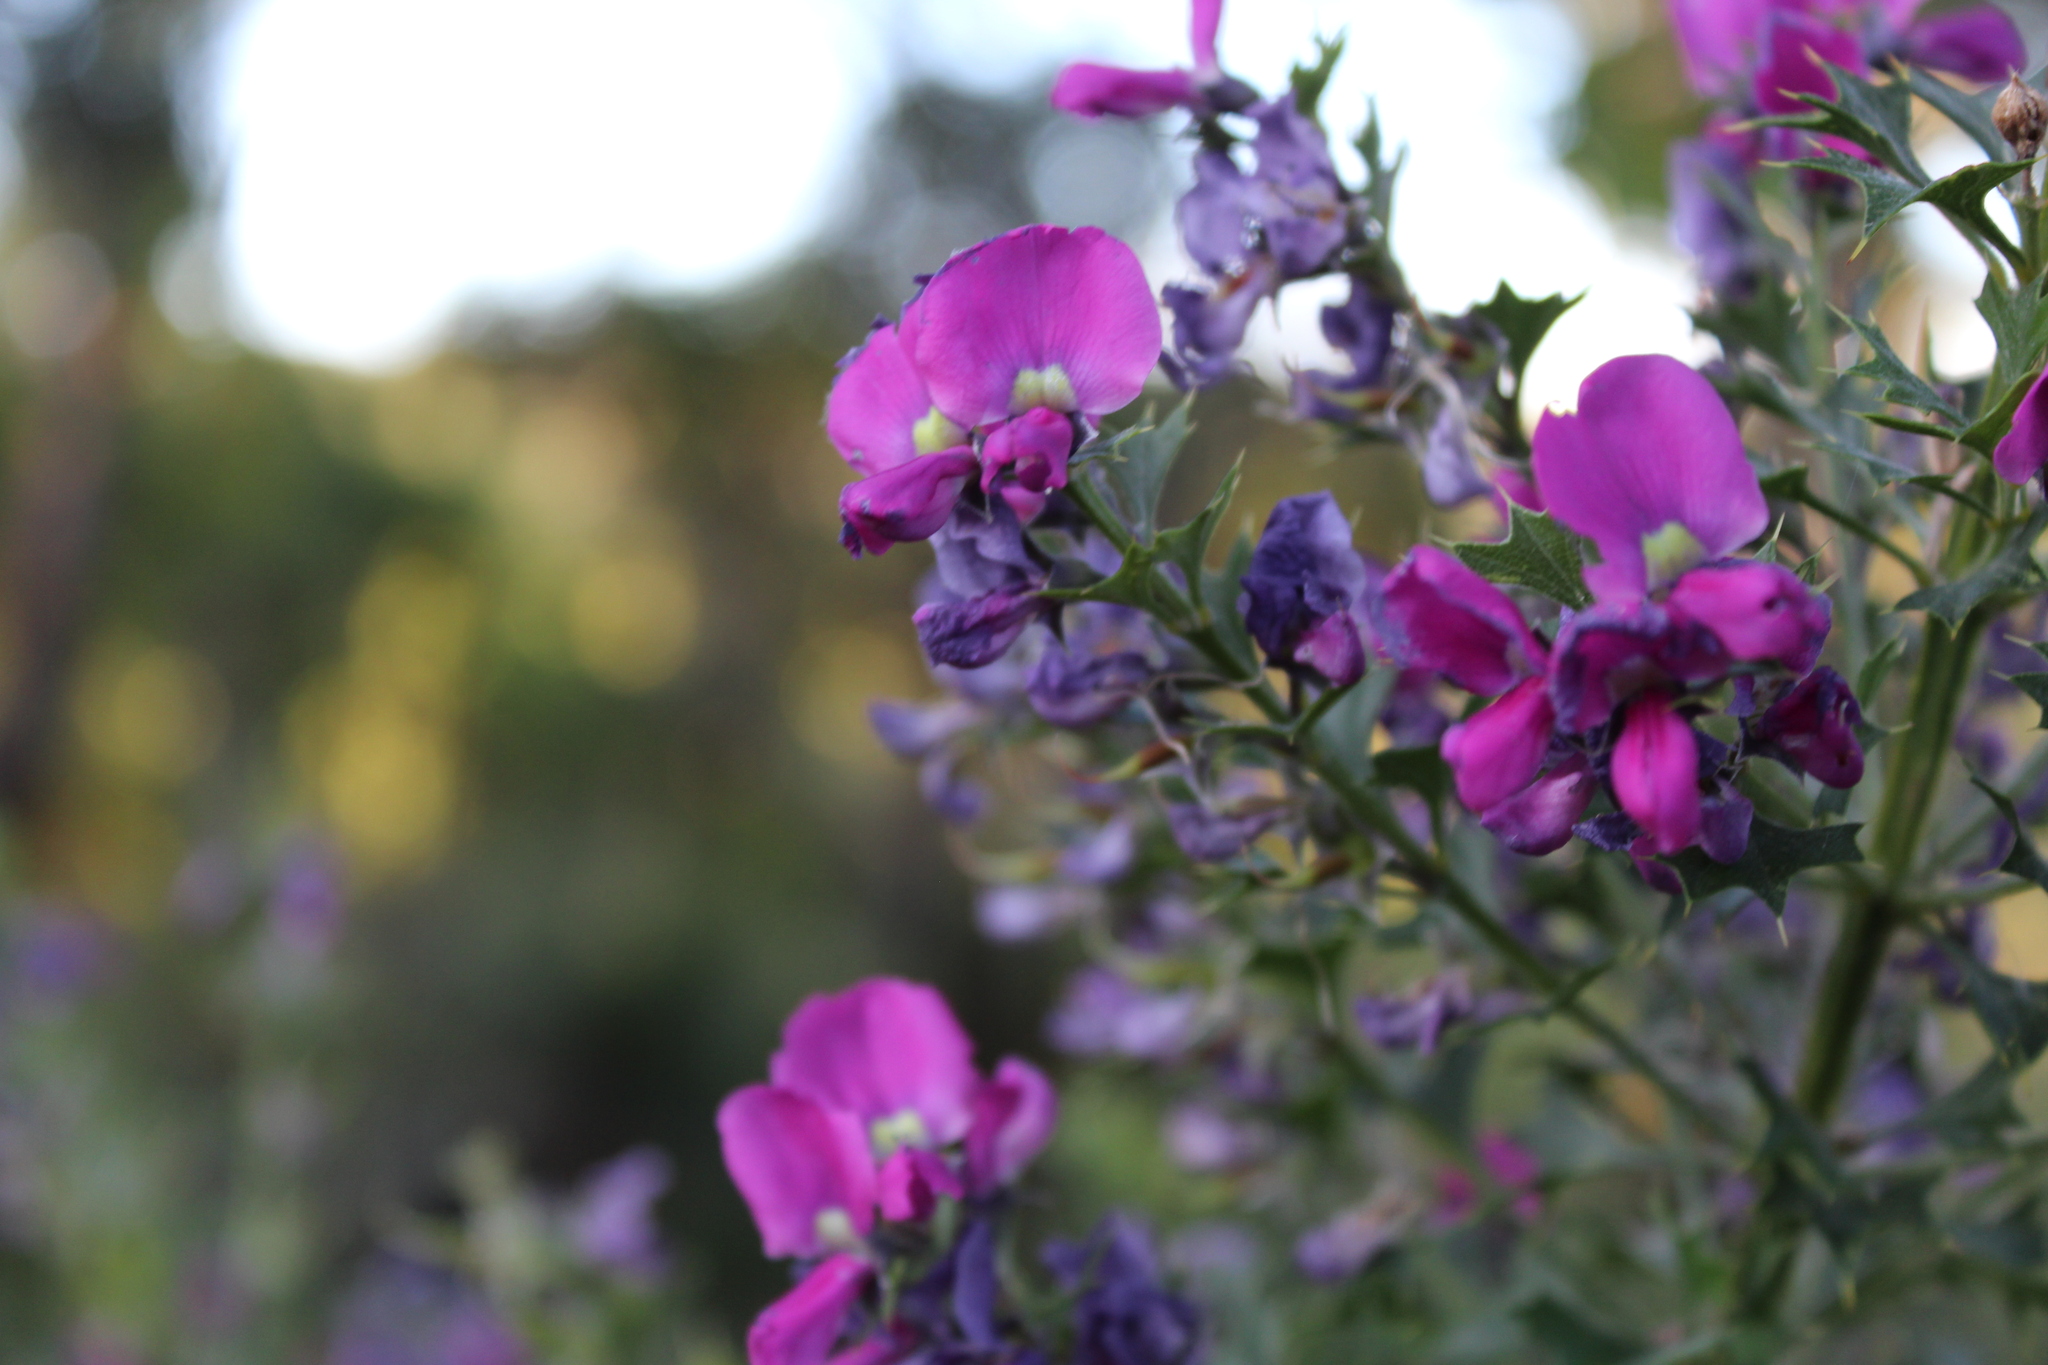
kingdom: Plantae
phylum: Tracheophyta
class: Magnoliopsida
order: Fabales
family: Fabaceae
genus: Mirbelia
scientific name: Mirbelia dilatata
